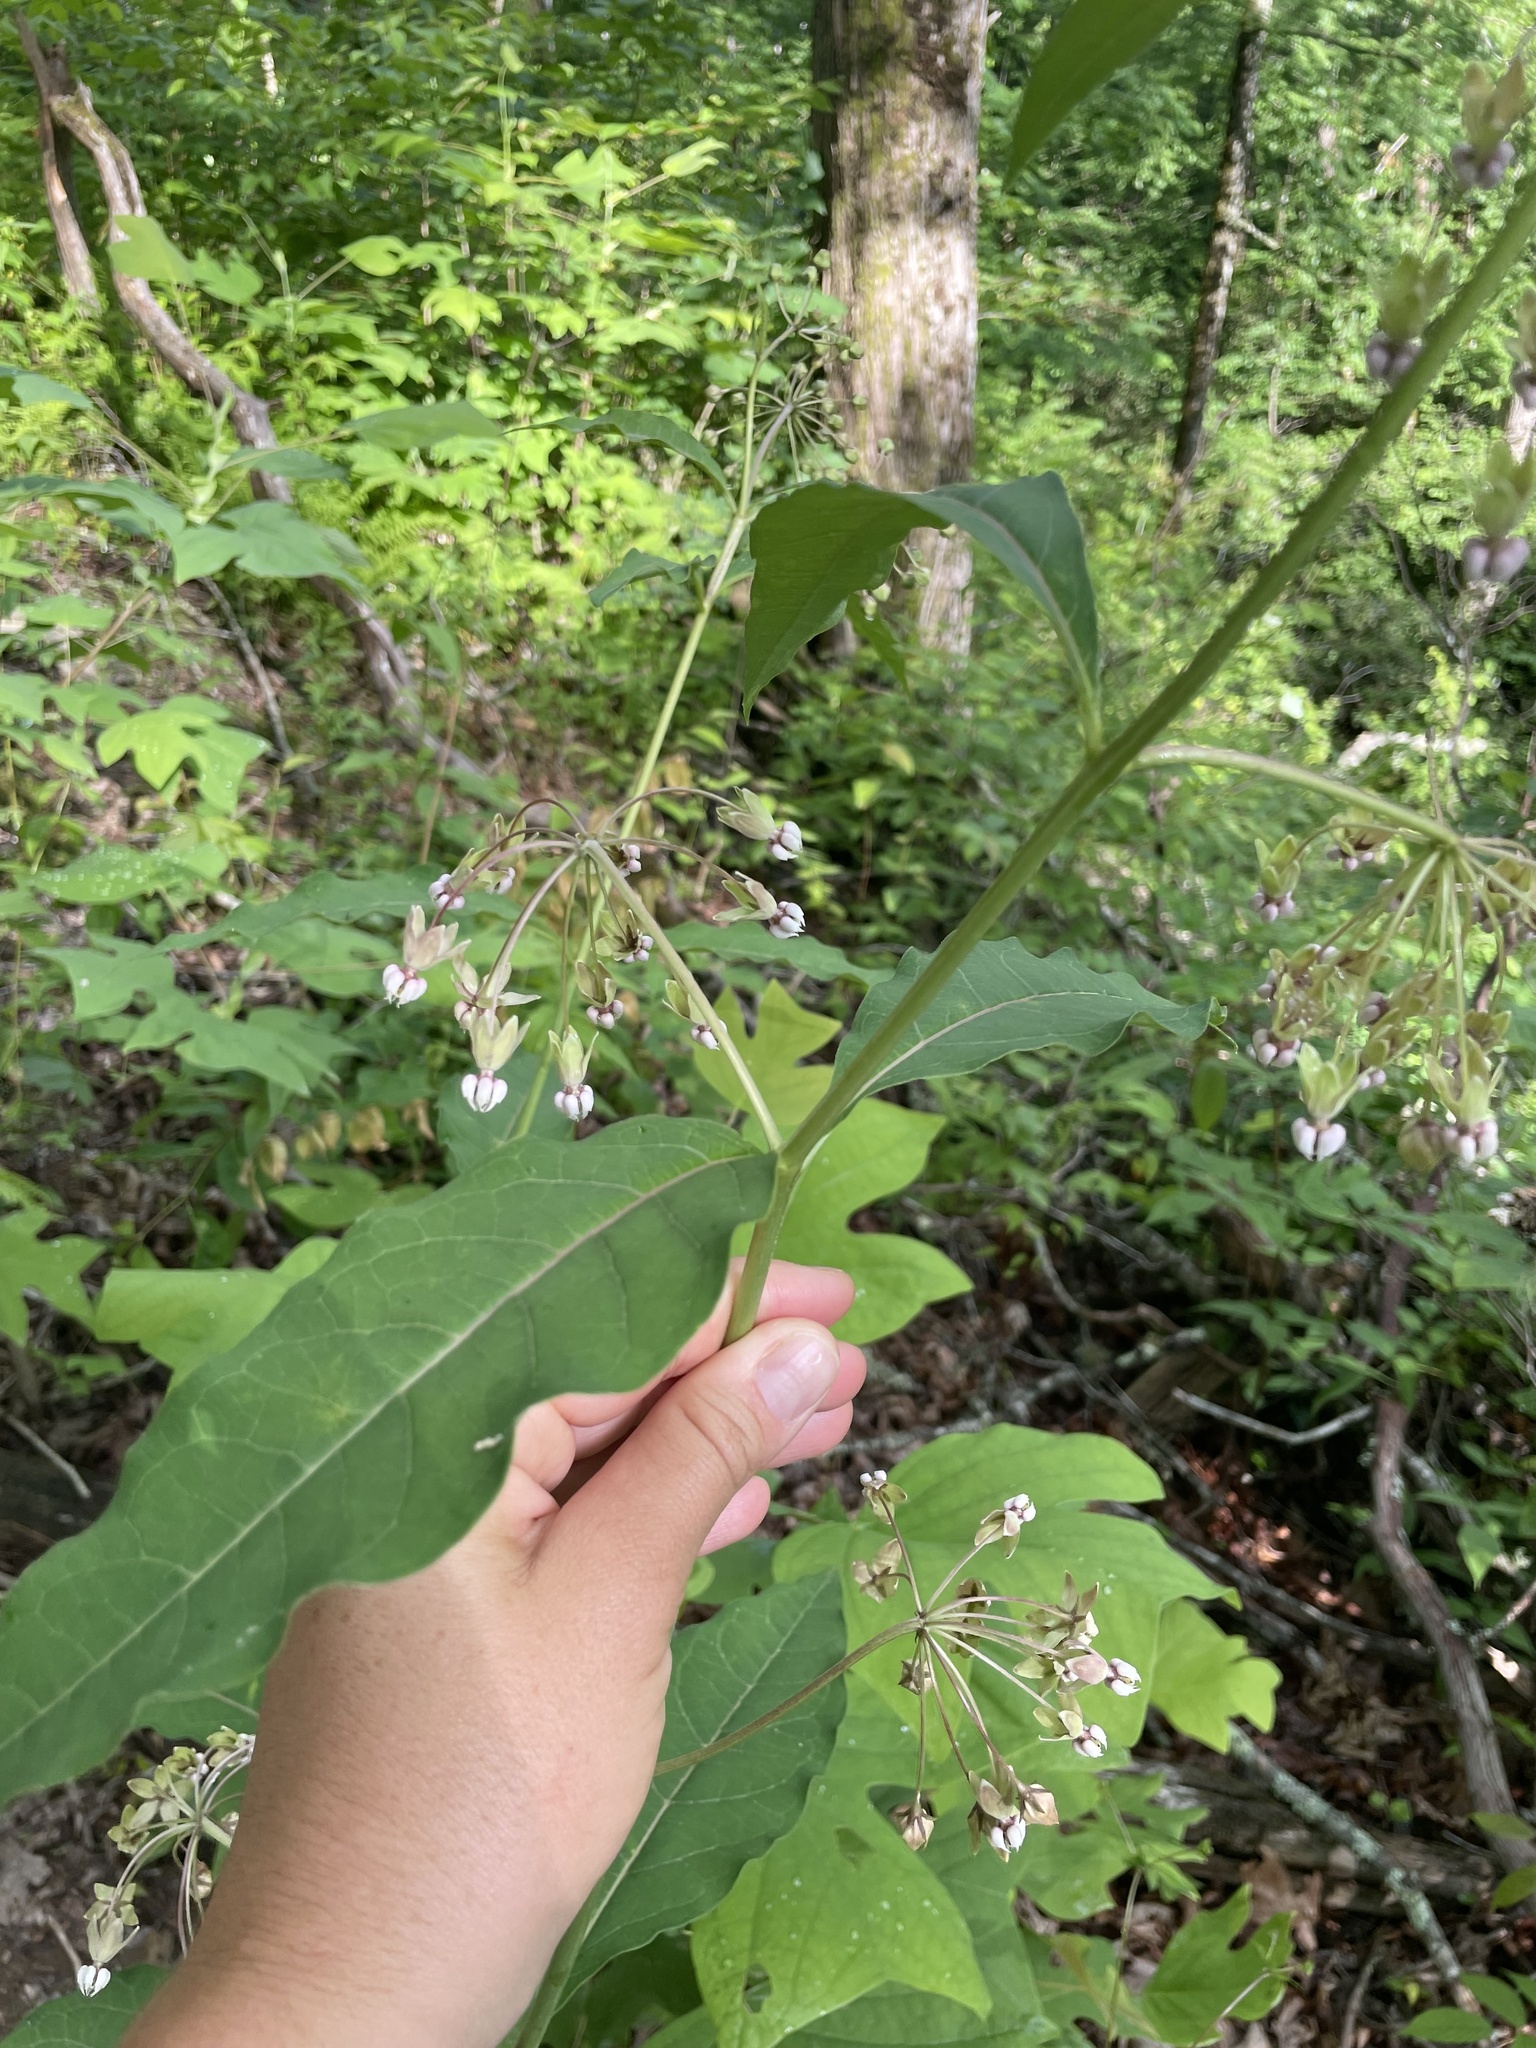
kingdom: Plantae
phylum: Tracheophyta
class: Magnoliopsida
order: Gentianales
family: Apocynaceae
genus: Asclepias
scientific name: Asclepias exaltata
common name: Poke milkweed
